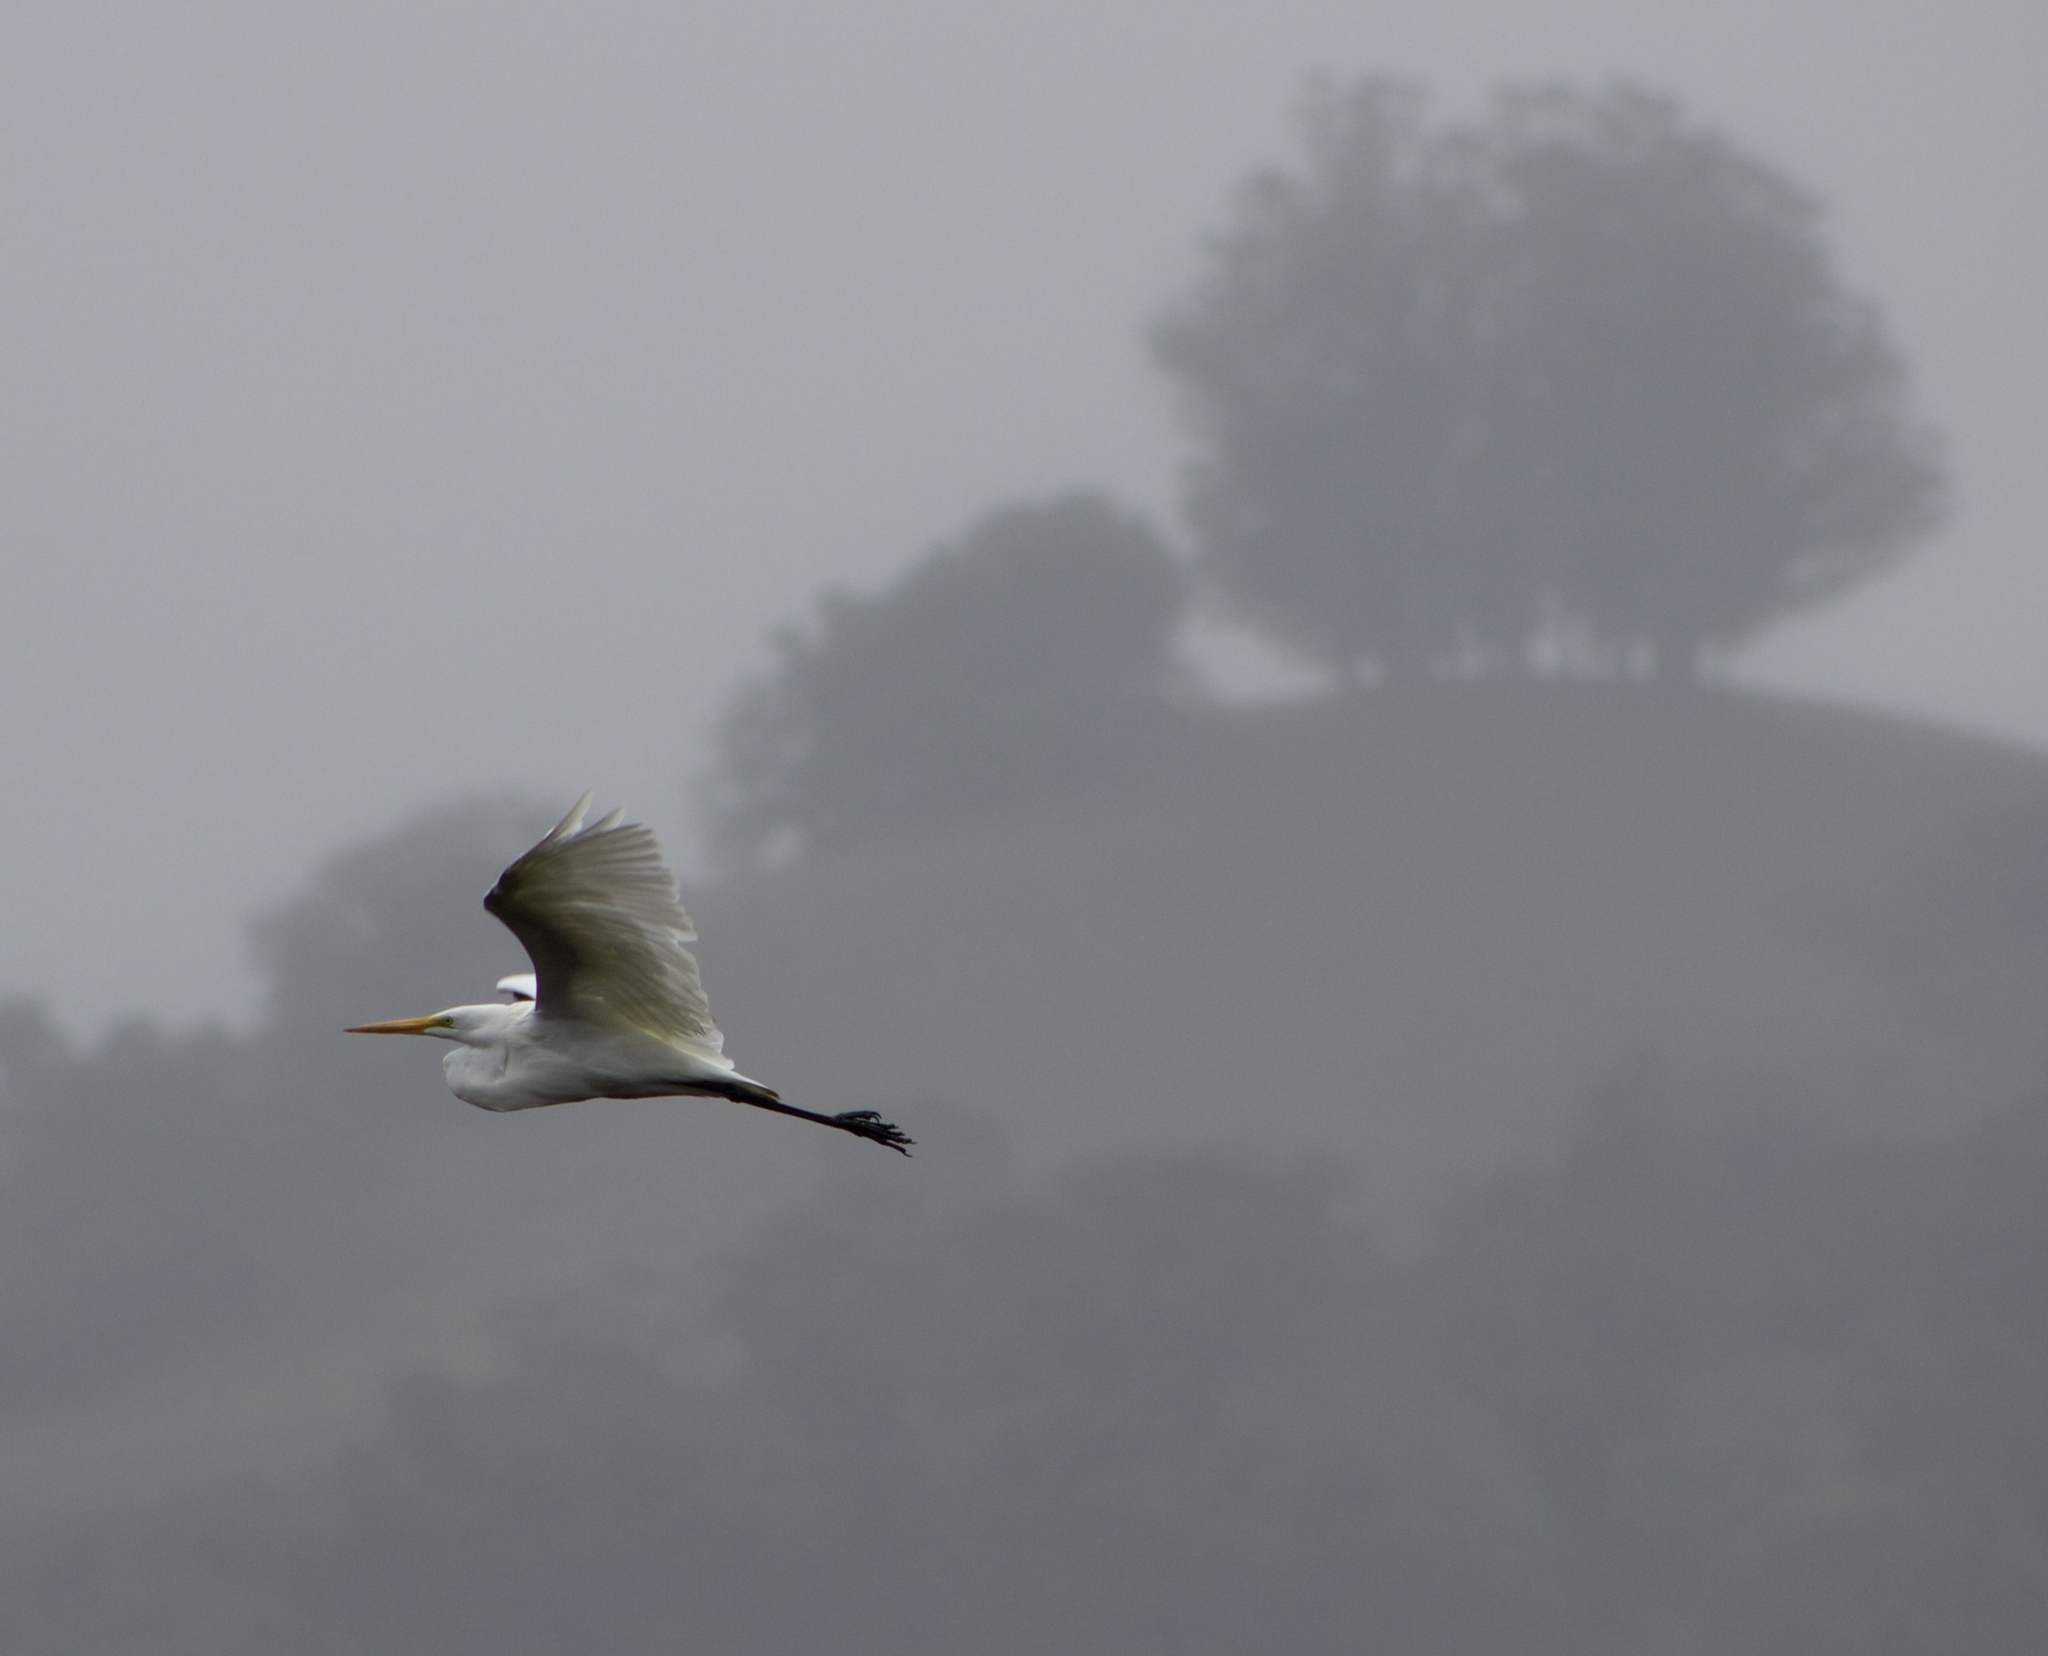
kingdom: Animalia
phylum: Chordata
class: Aves
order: Pelecaniformes
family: Ardeidae
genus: Ardea
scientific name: Ardea alba
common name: Great egret
